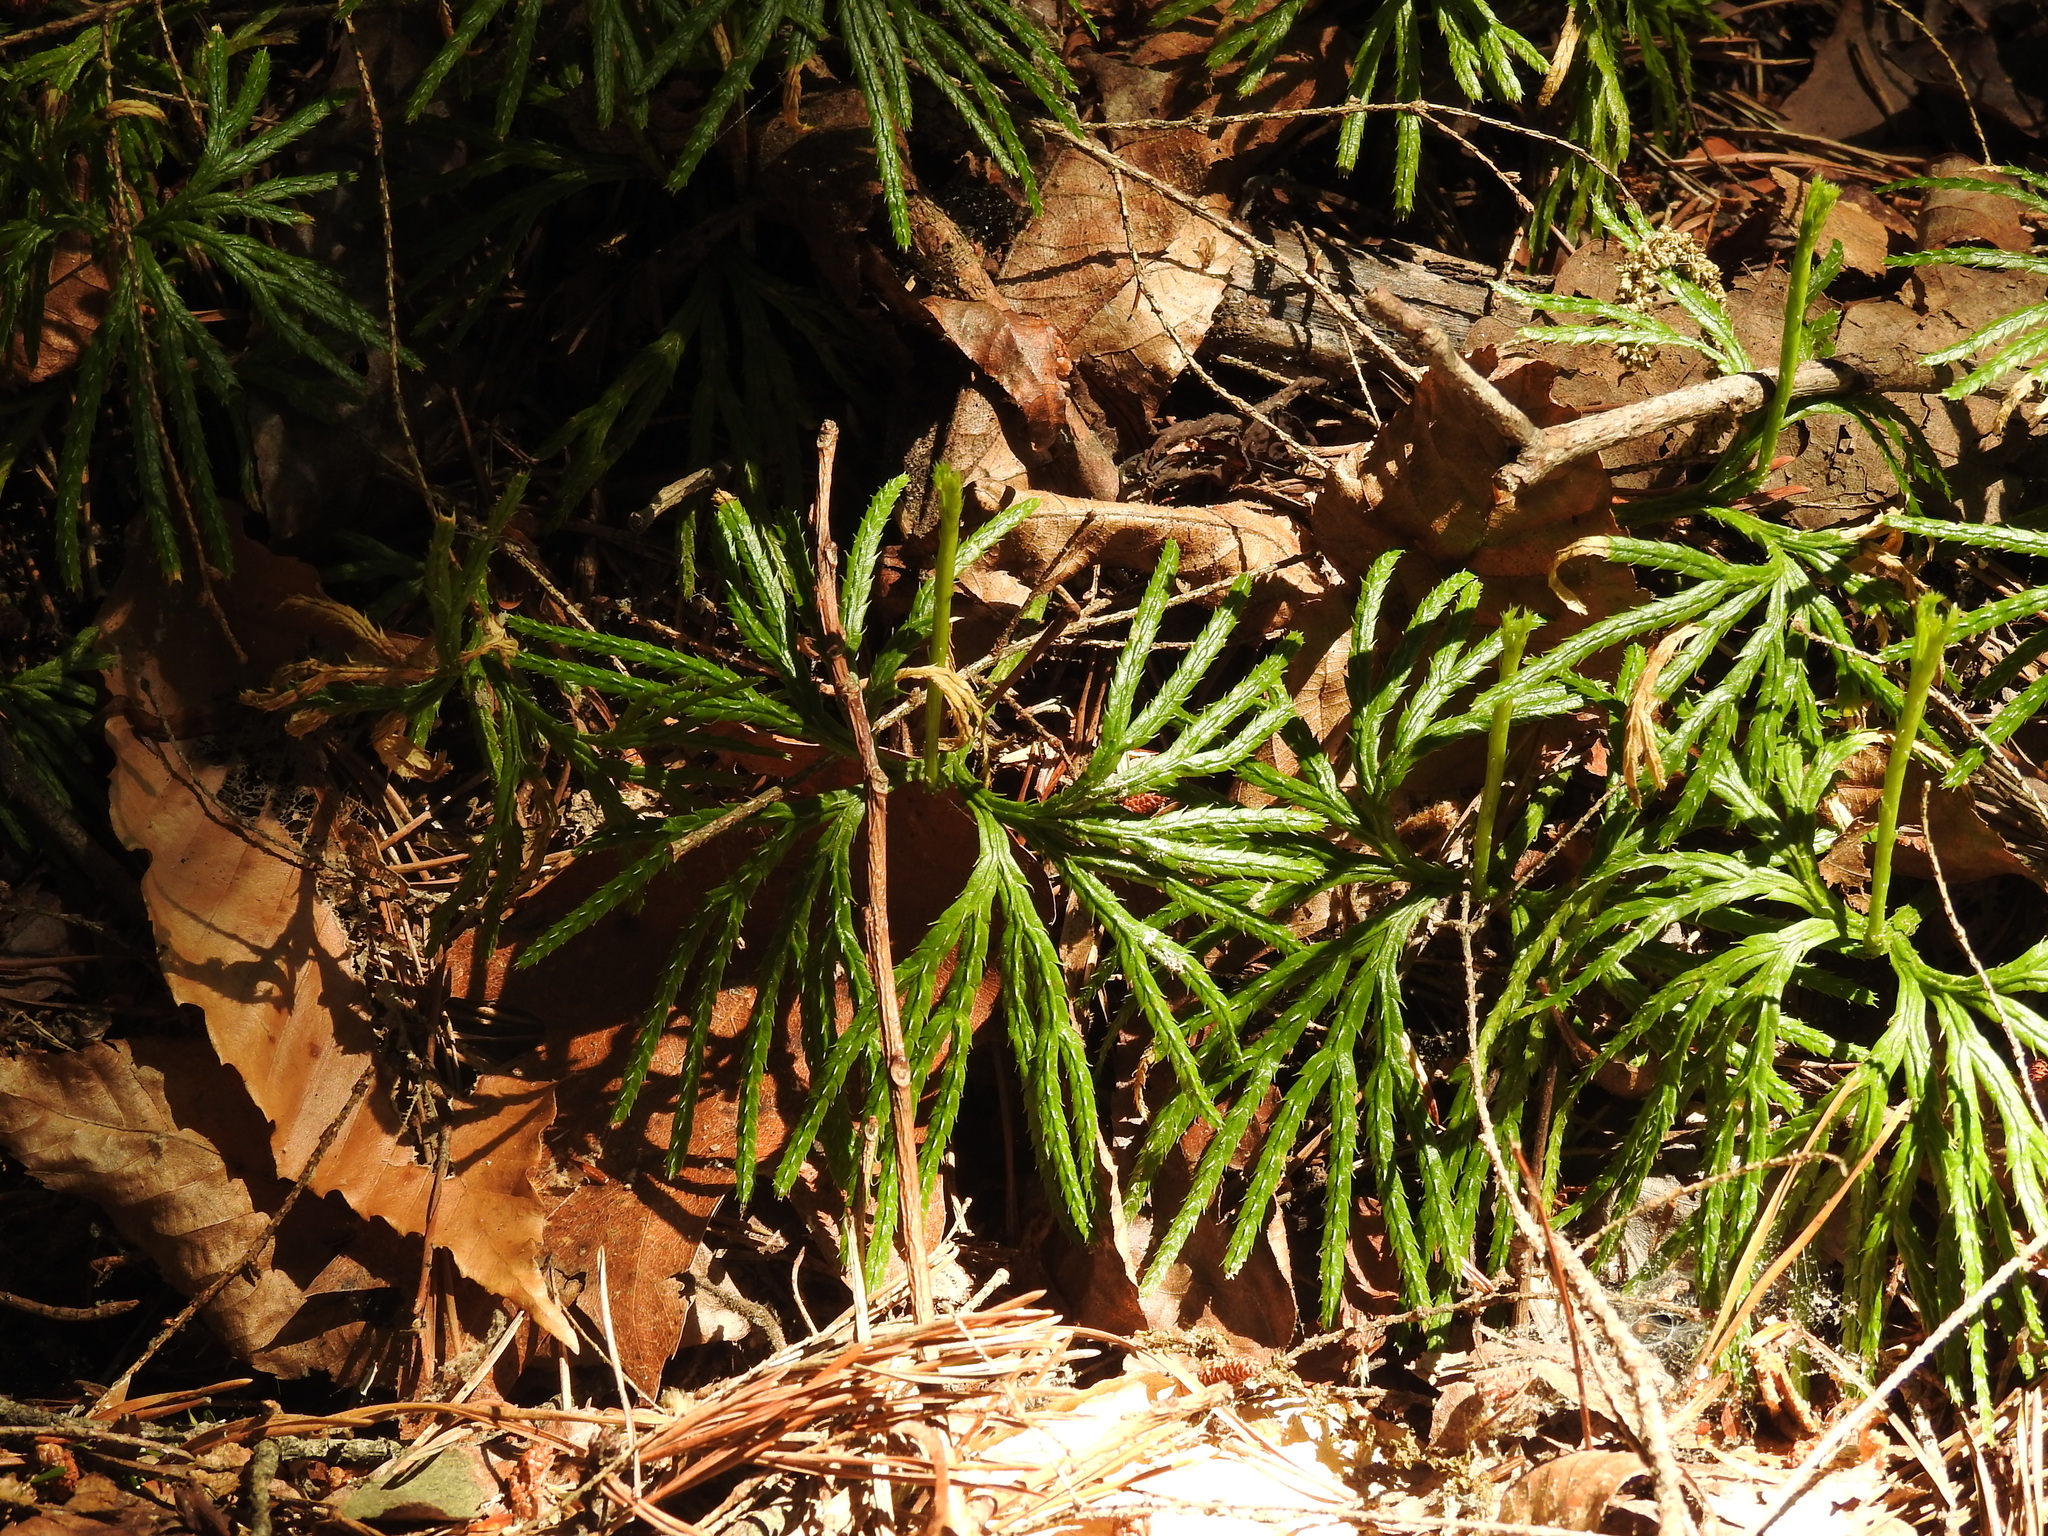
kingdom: Plantae
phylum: Tracheophyta
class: Lycopodiopsida
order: Lycopodiales
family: Lycopodiaceae
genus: Diphasiastrum
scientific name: Diphasiastrum digitatum
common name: Southern running-pine
